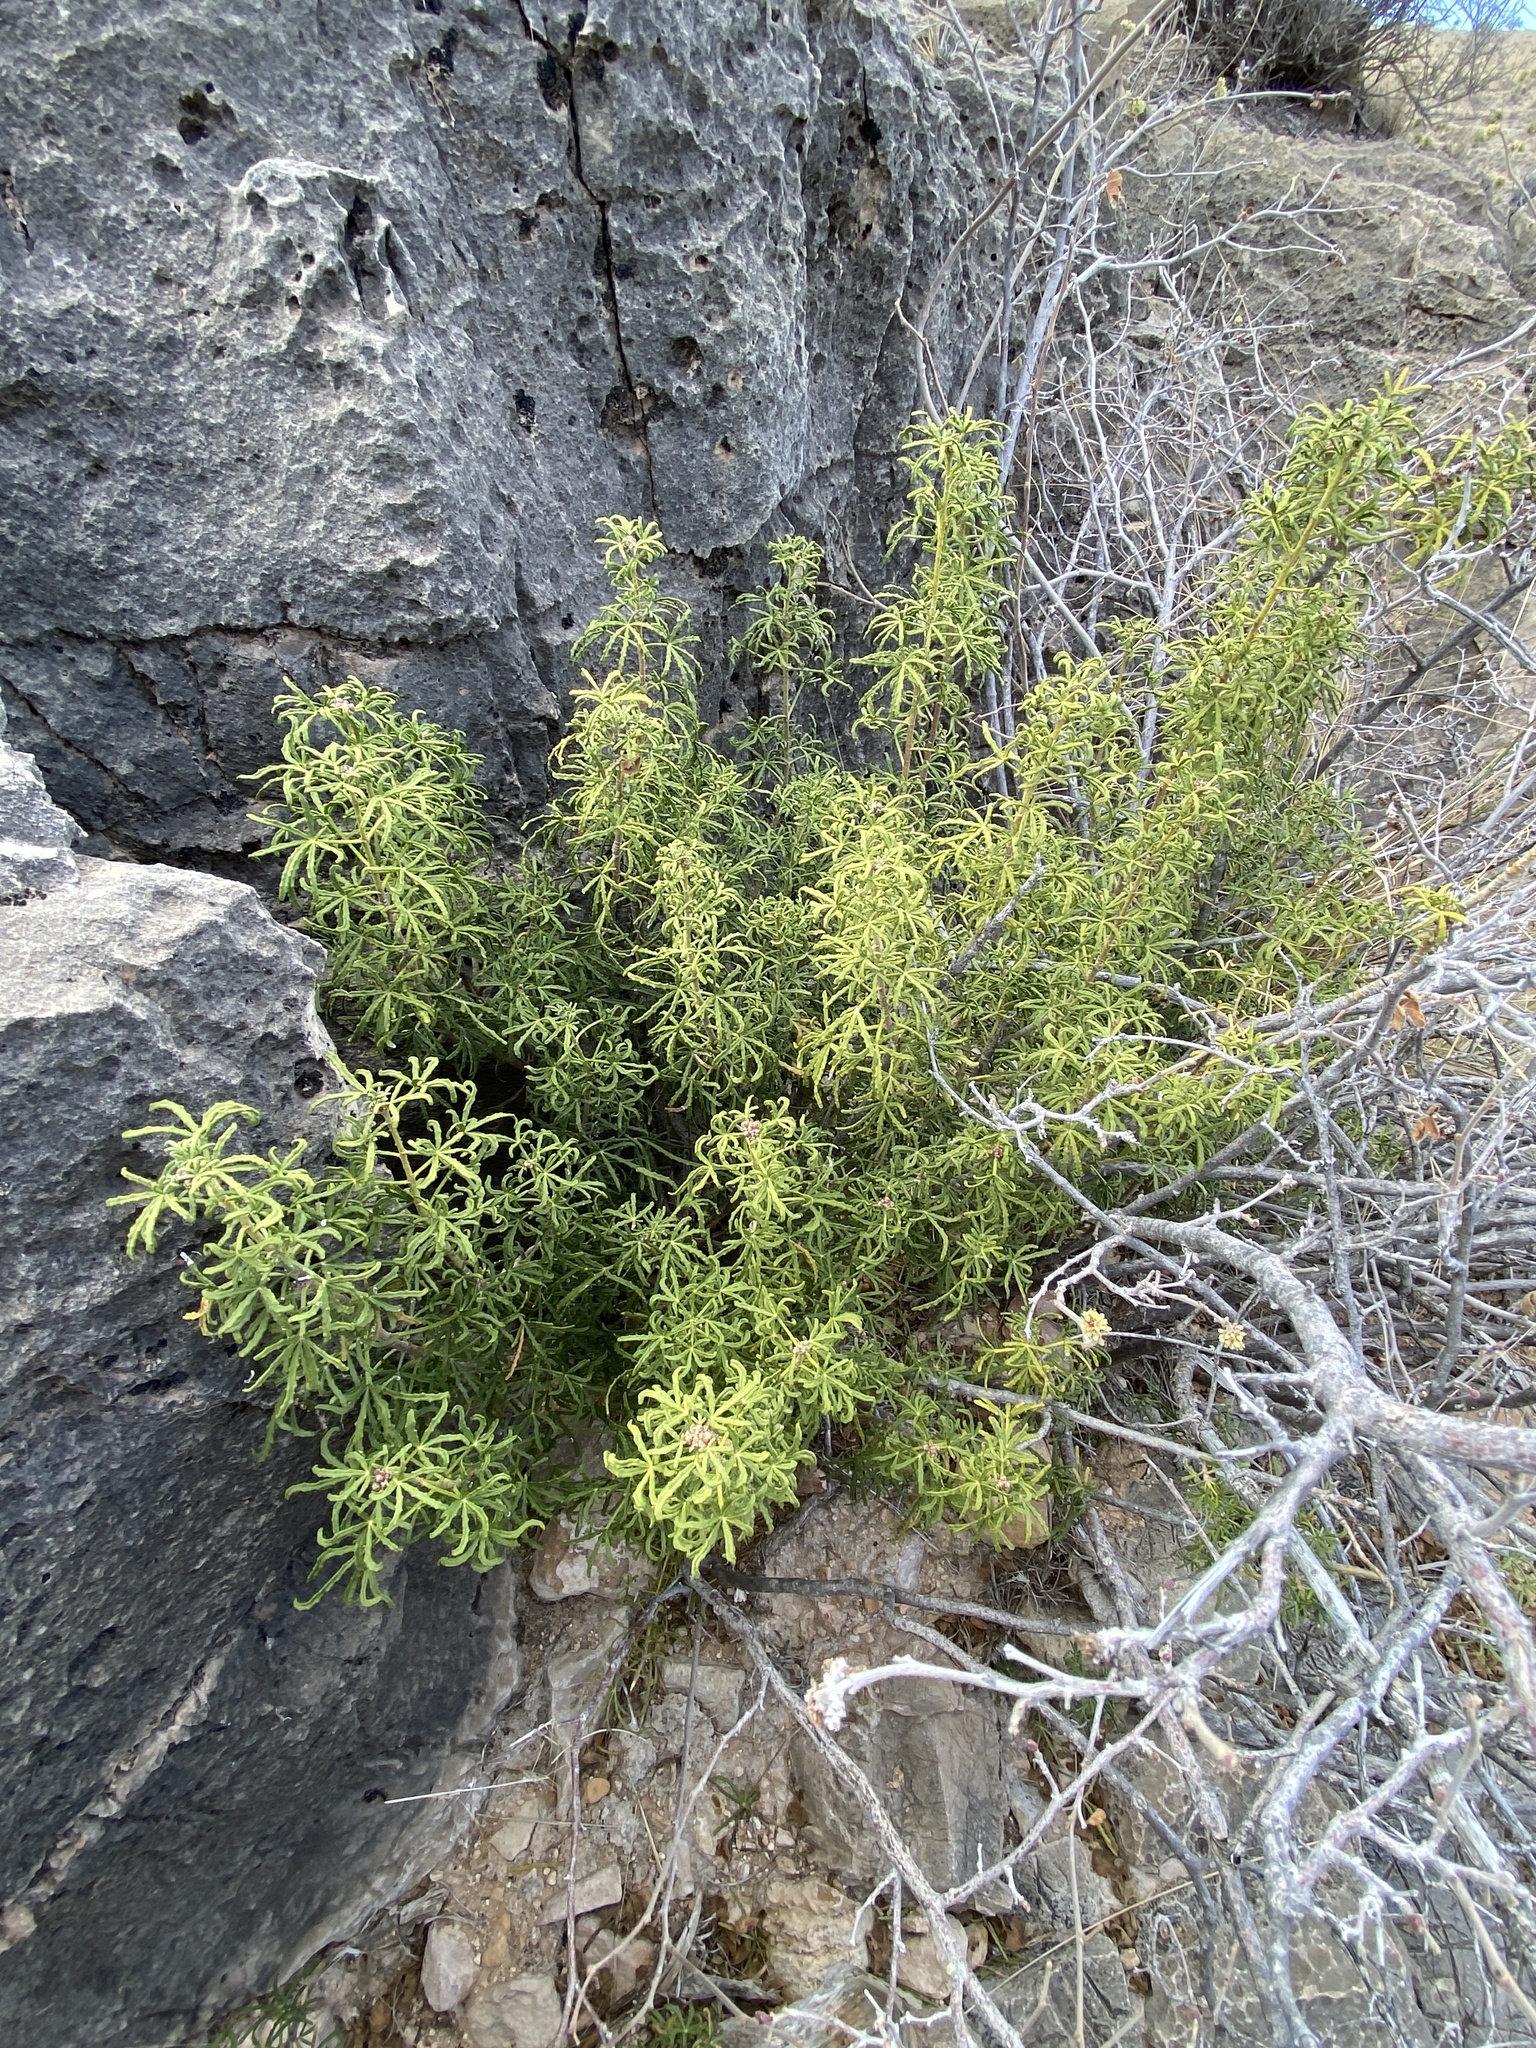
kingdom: Plantae
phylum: Tracheophyta
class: Magnoliopsida
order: Sapindales
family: Rutaceae
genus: Choisya
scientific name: Choisya dumosa
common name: Mexican-orange
